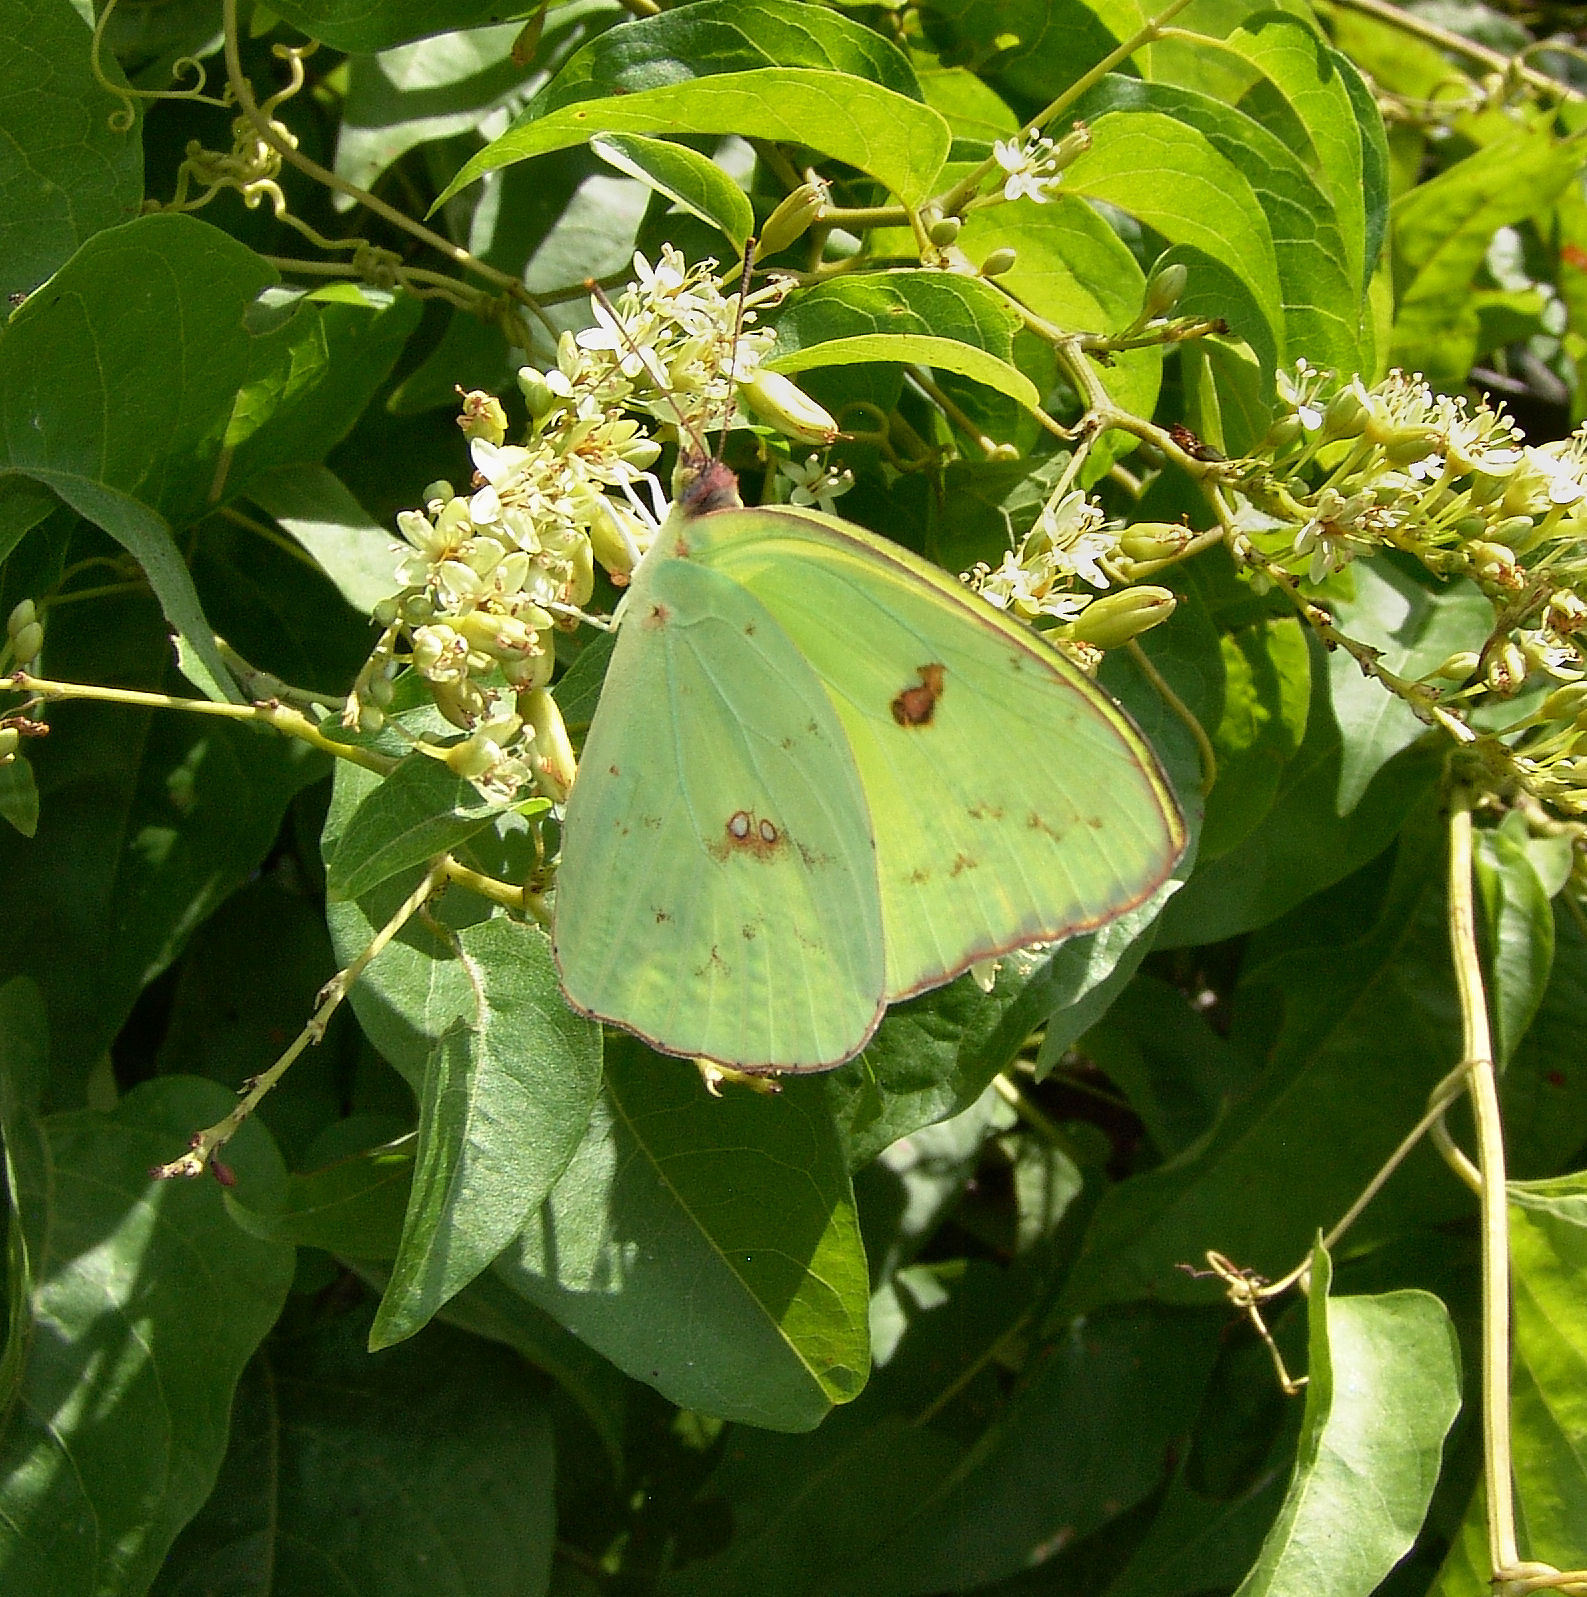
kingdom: Animalia
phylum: Arthropoda
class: Insecta
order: Lepidoptera
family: Pieridae
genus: Phoebis
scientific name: Phoebis sennae
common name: Cloudless sulphur
